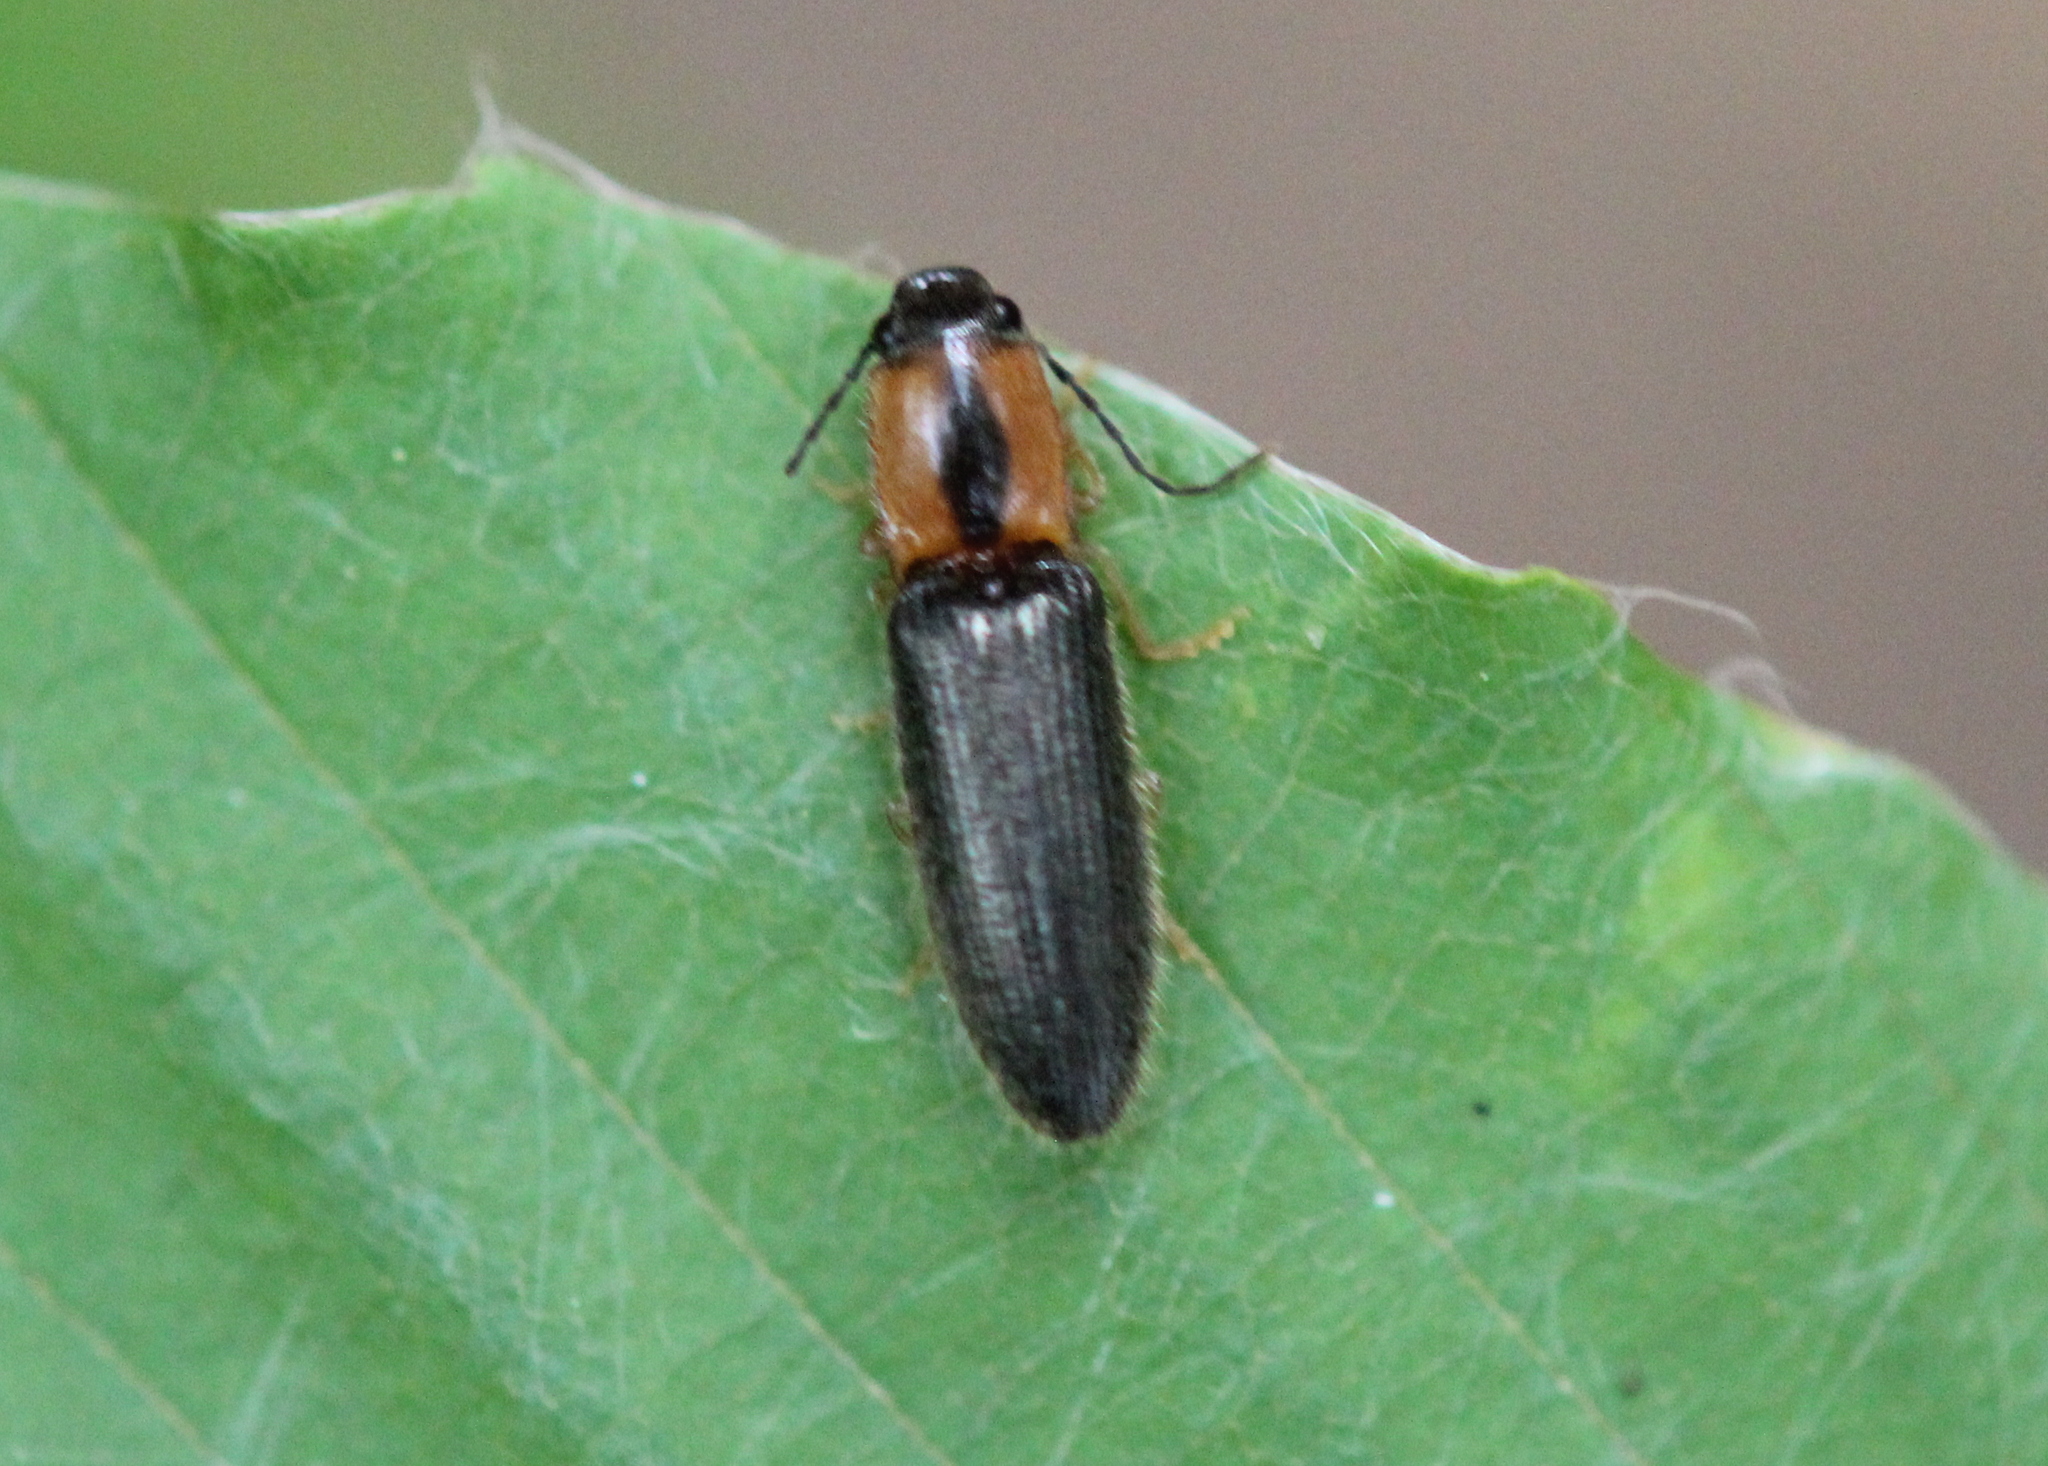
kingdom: Animalia
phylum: Arthropoda
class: Insecta
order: Coleoptera
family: Elateridae
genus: Athous
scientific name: Athous neacanthus
